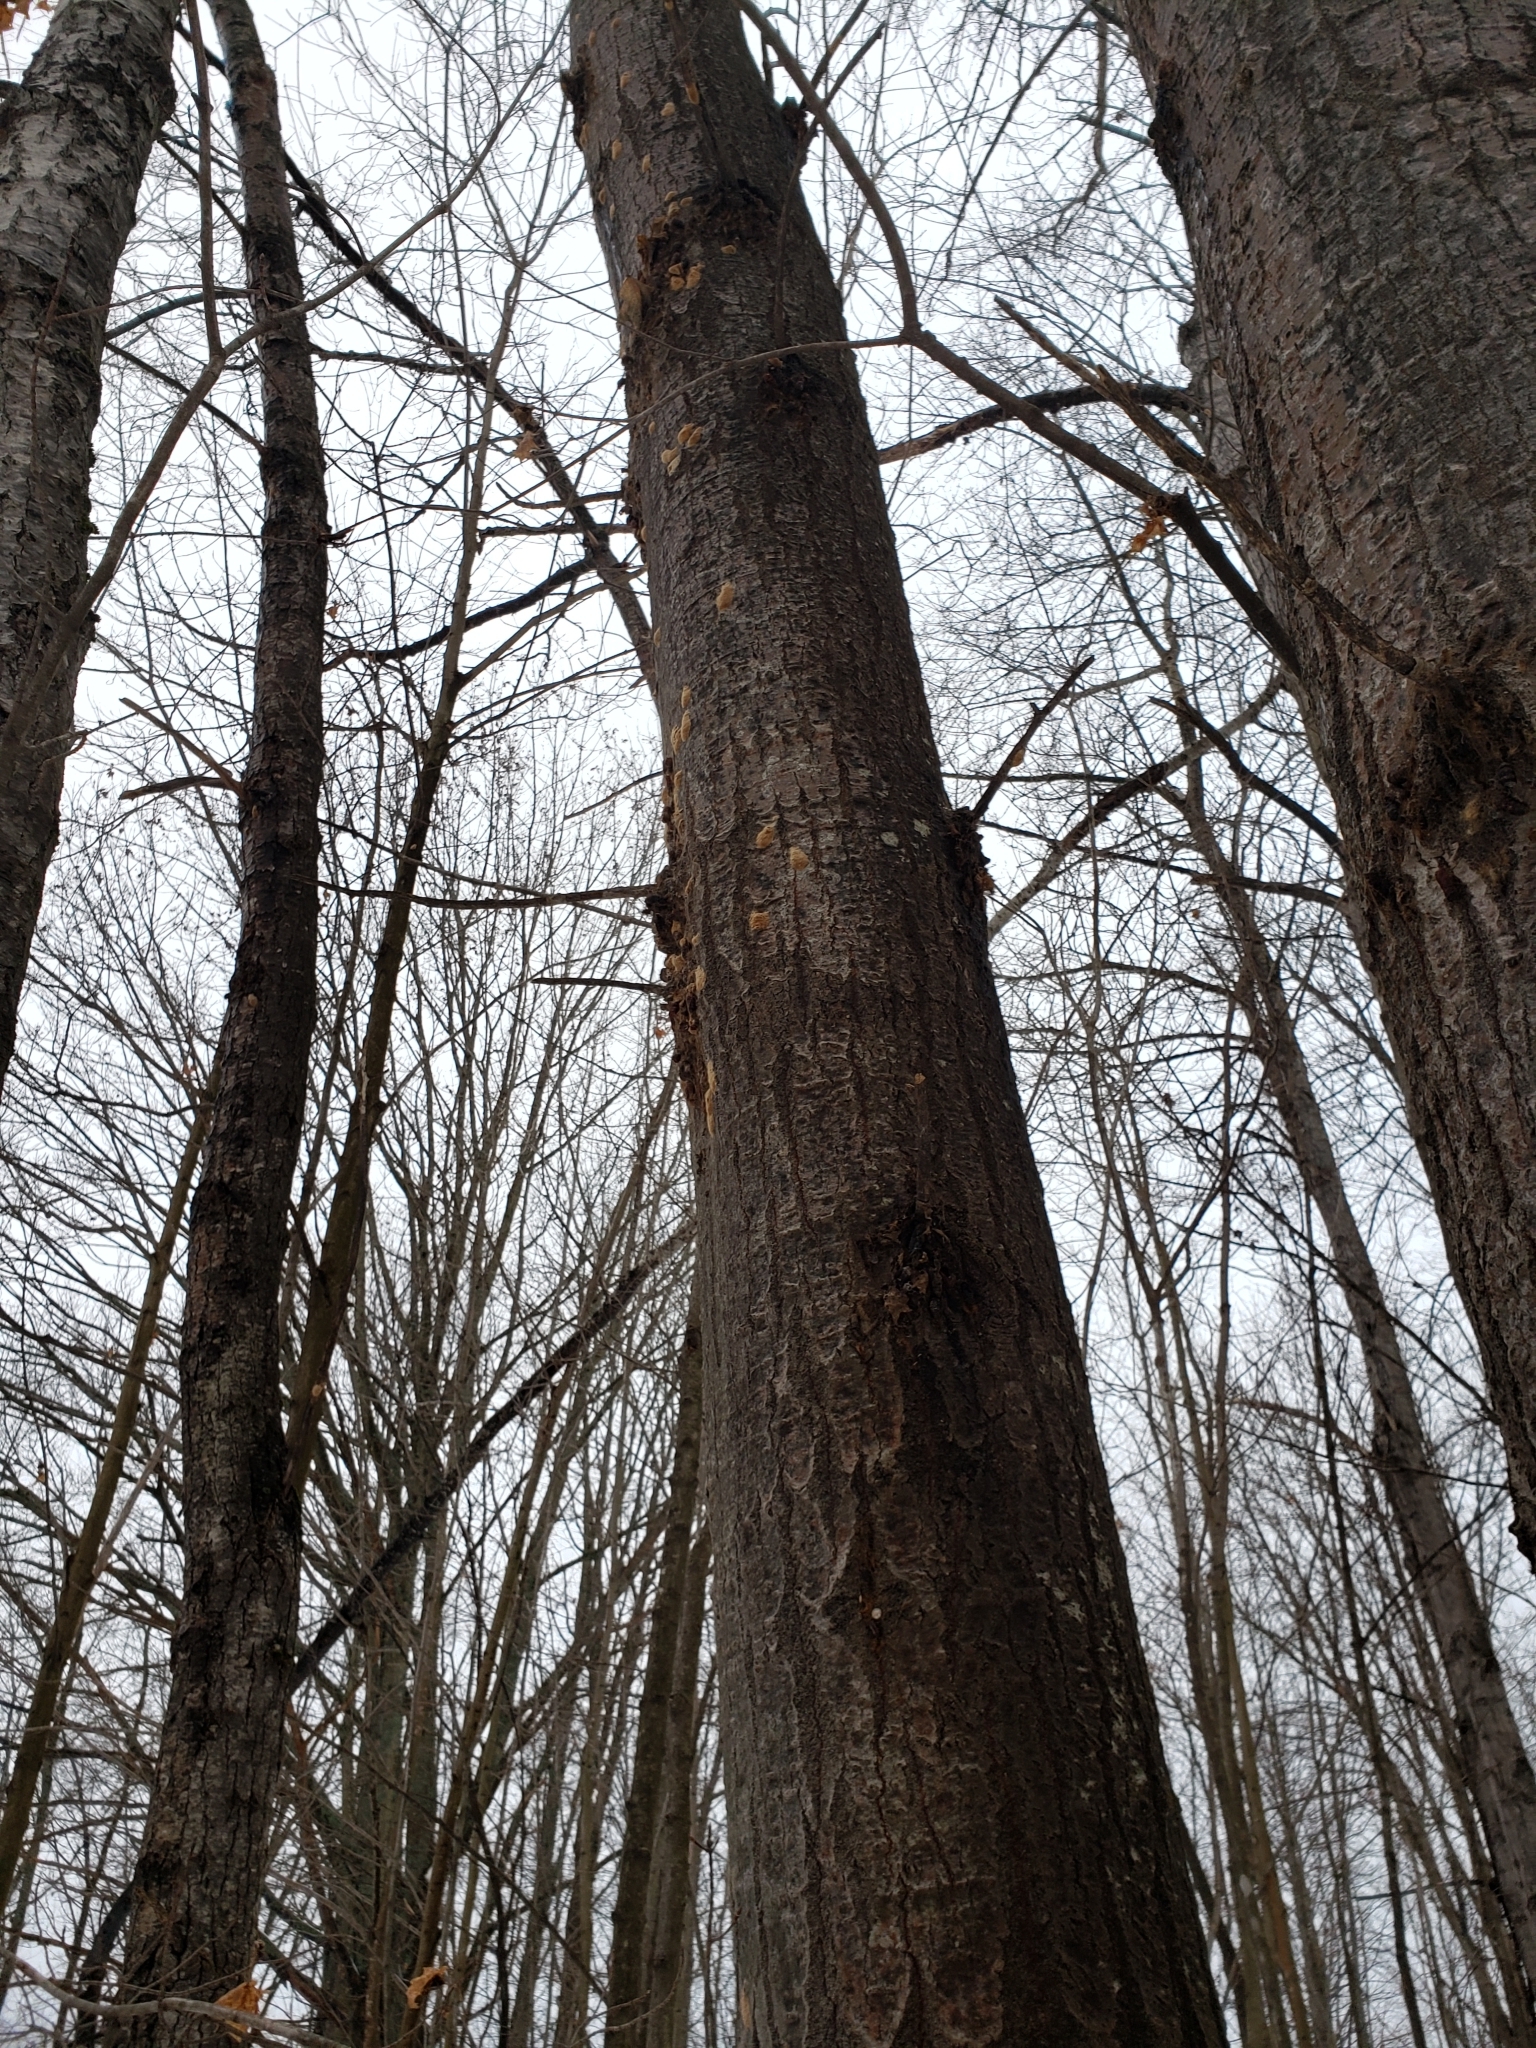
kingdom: Animalia
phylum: Arthropoda
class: Insecta
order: Lepidoptera
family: Erebidae
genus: Lymantria
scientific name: Lymantria dispar
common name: Gypsy moth
